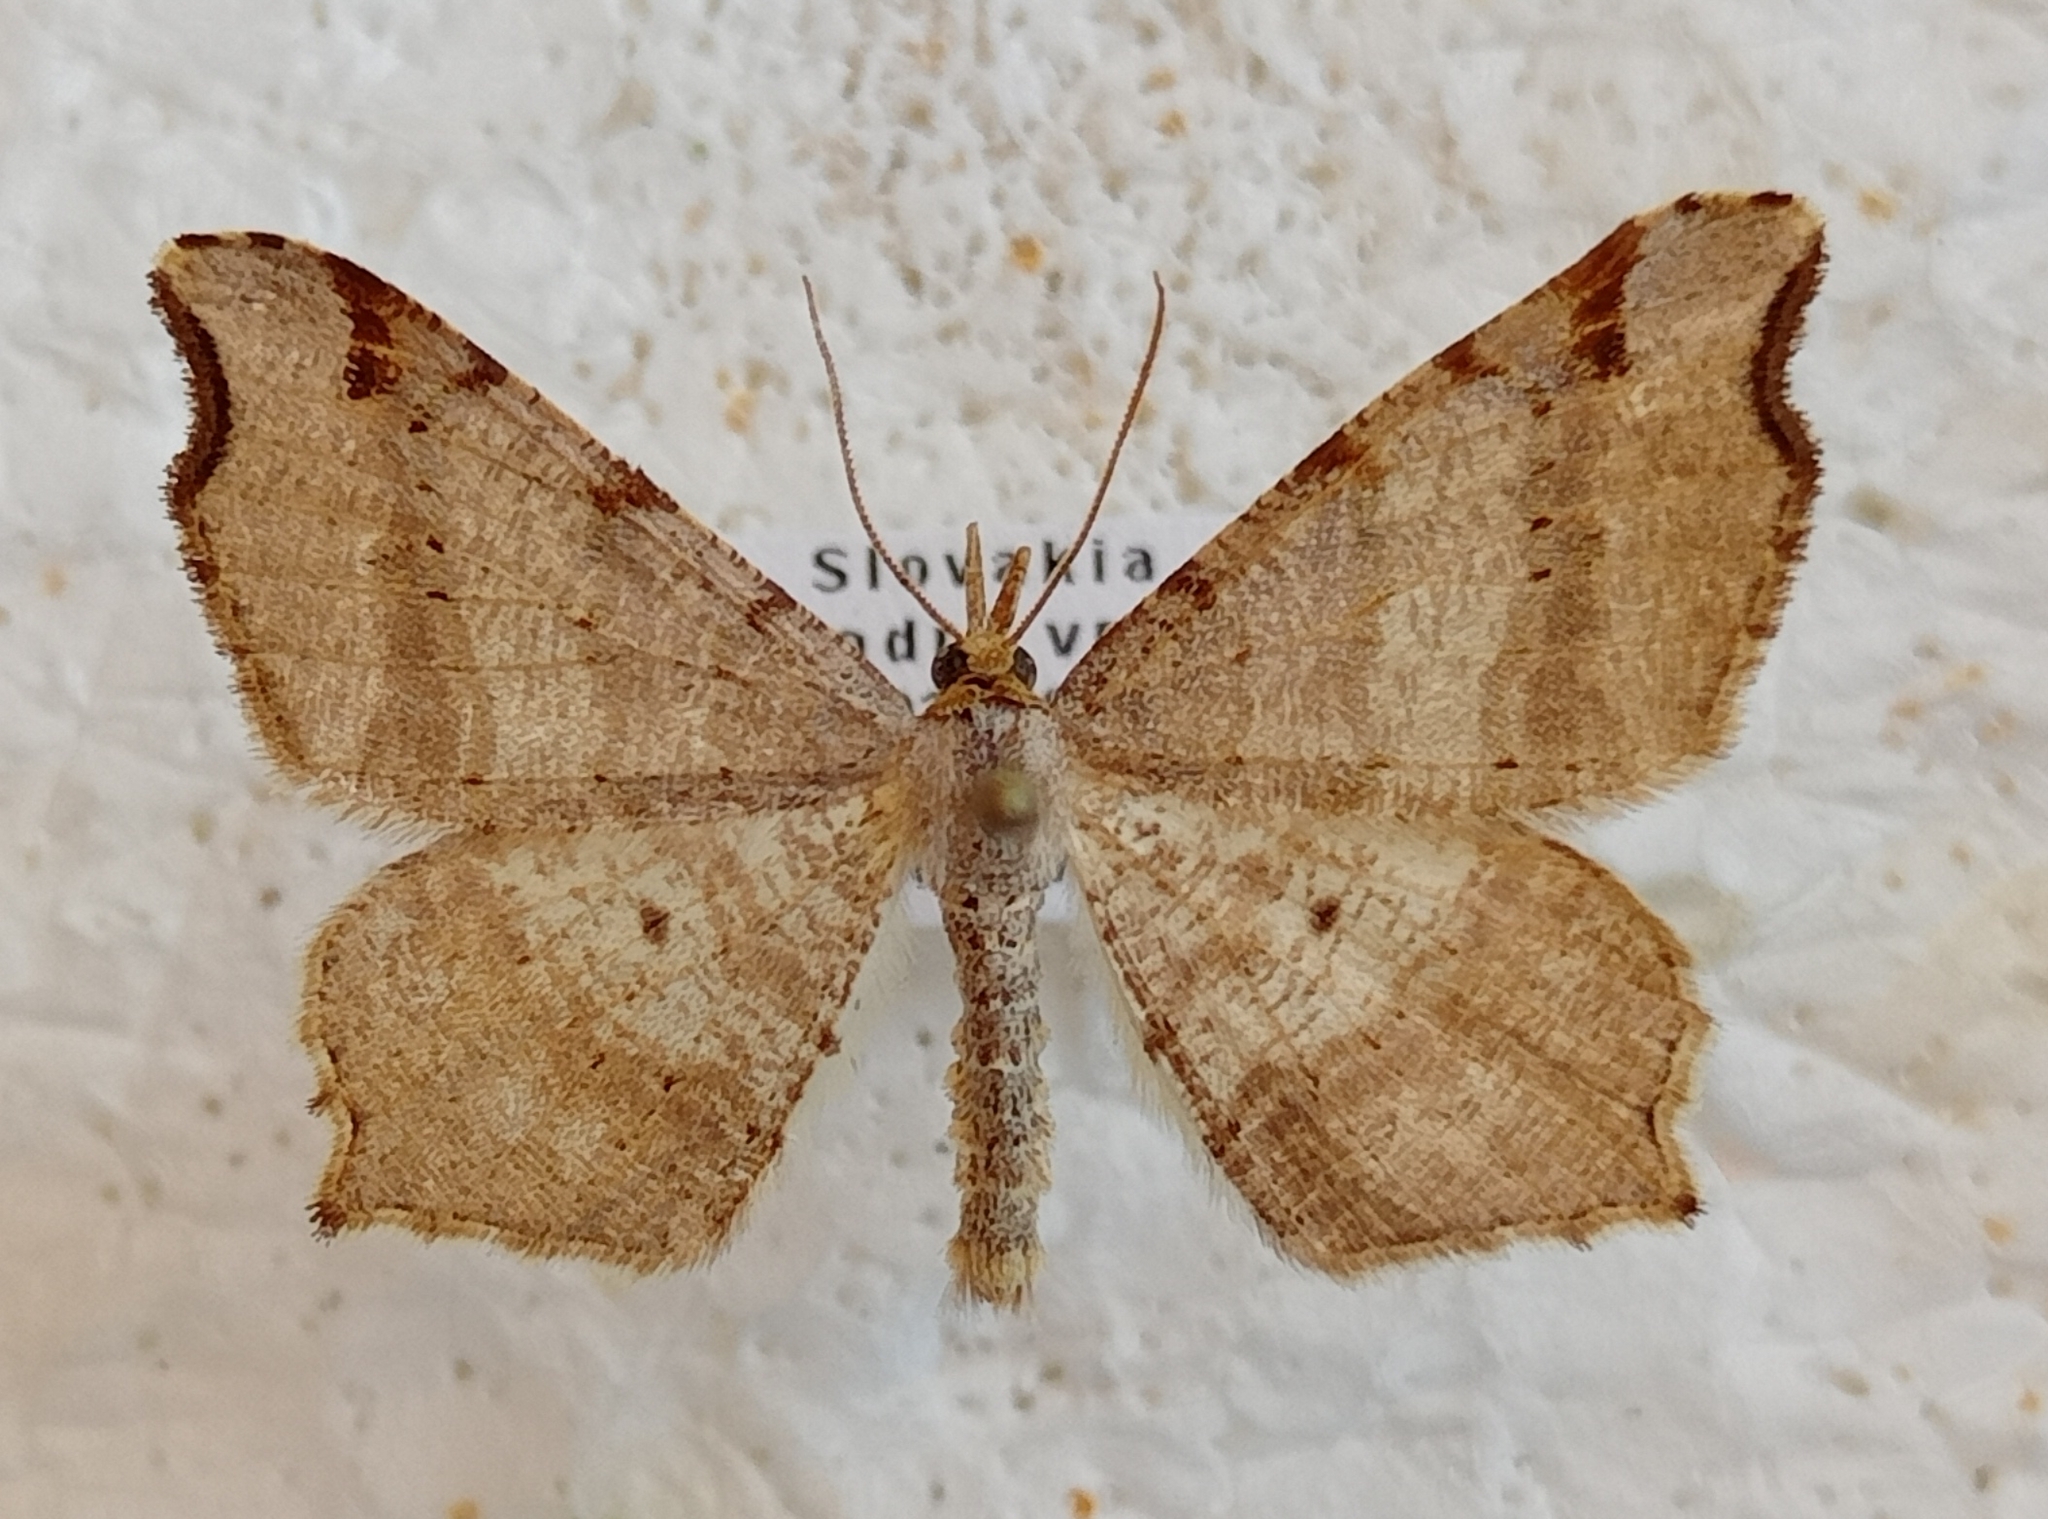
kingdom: Animalia
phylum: Arthropoda
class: Insecta
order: Lepidoptera
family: Geometridae
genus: Macaria
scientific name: Macaria alternata
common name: Sharp-angled peacock
